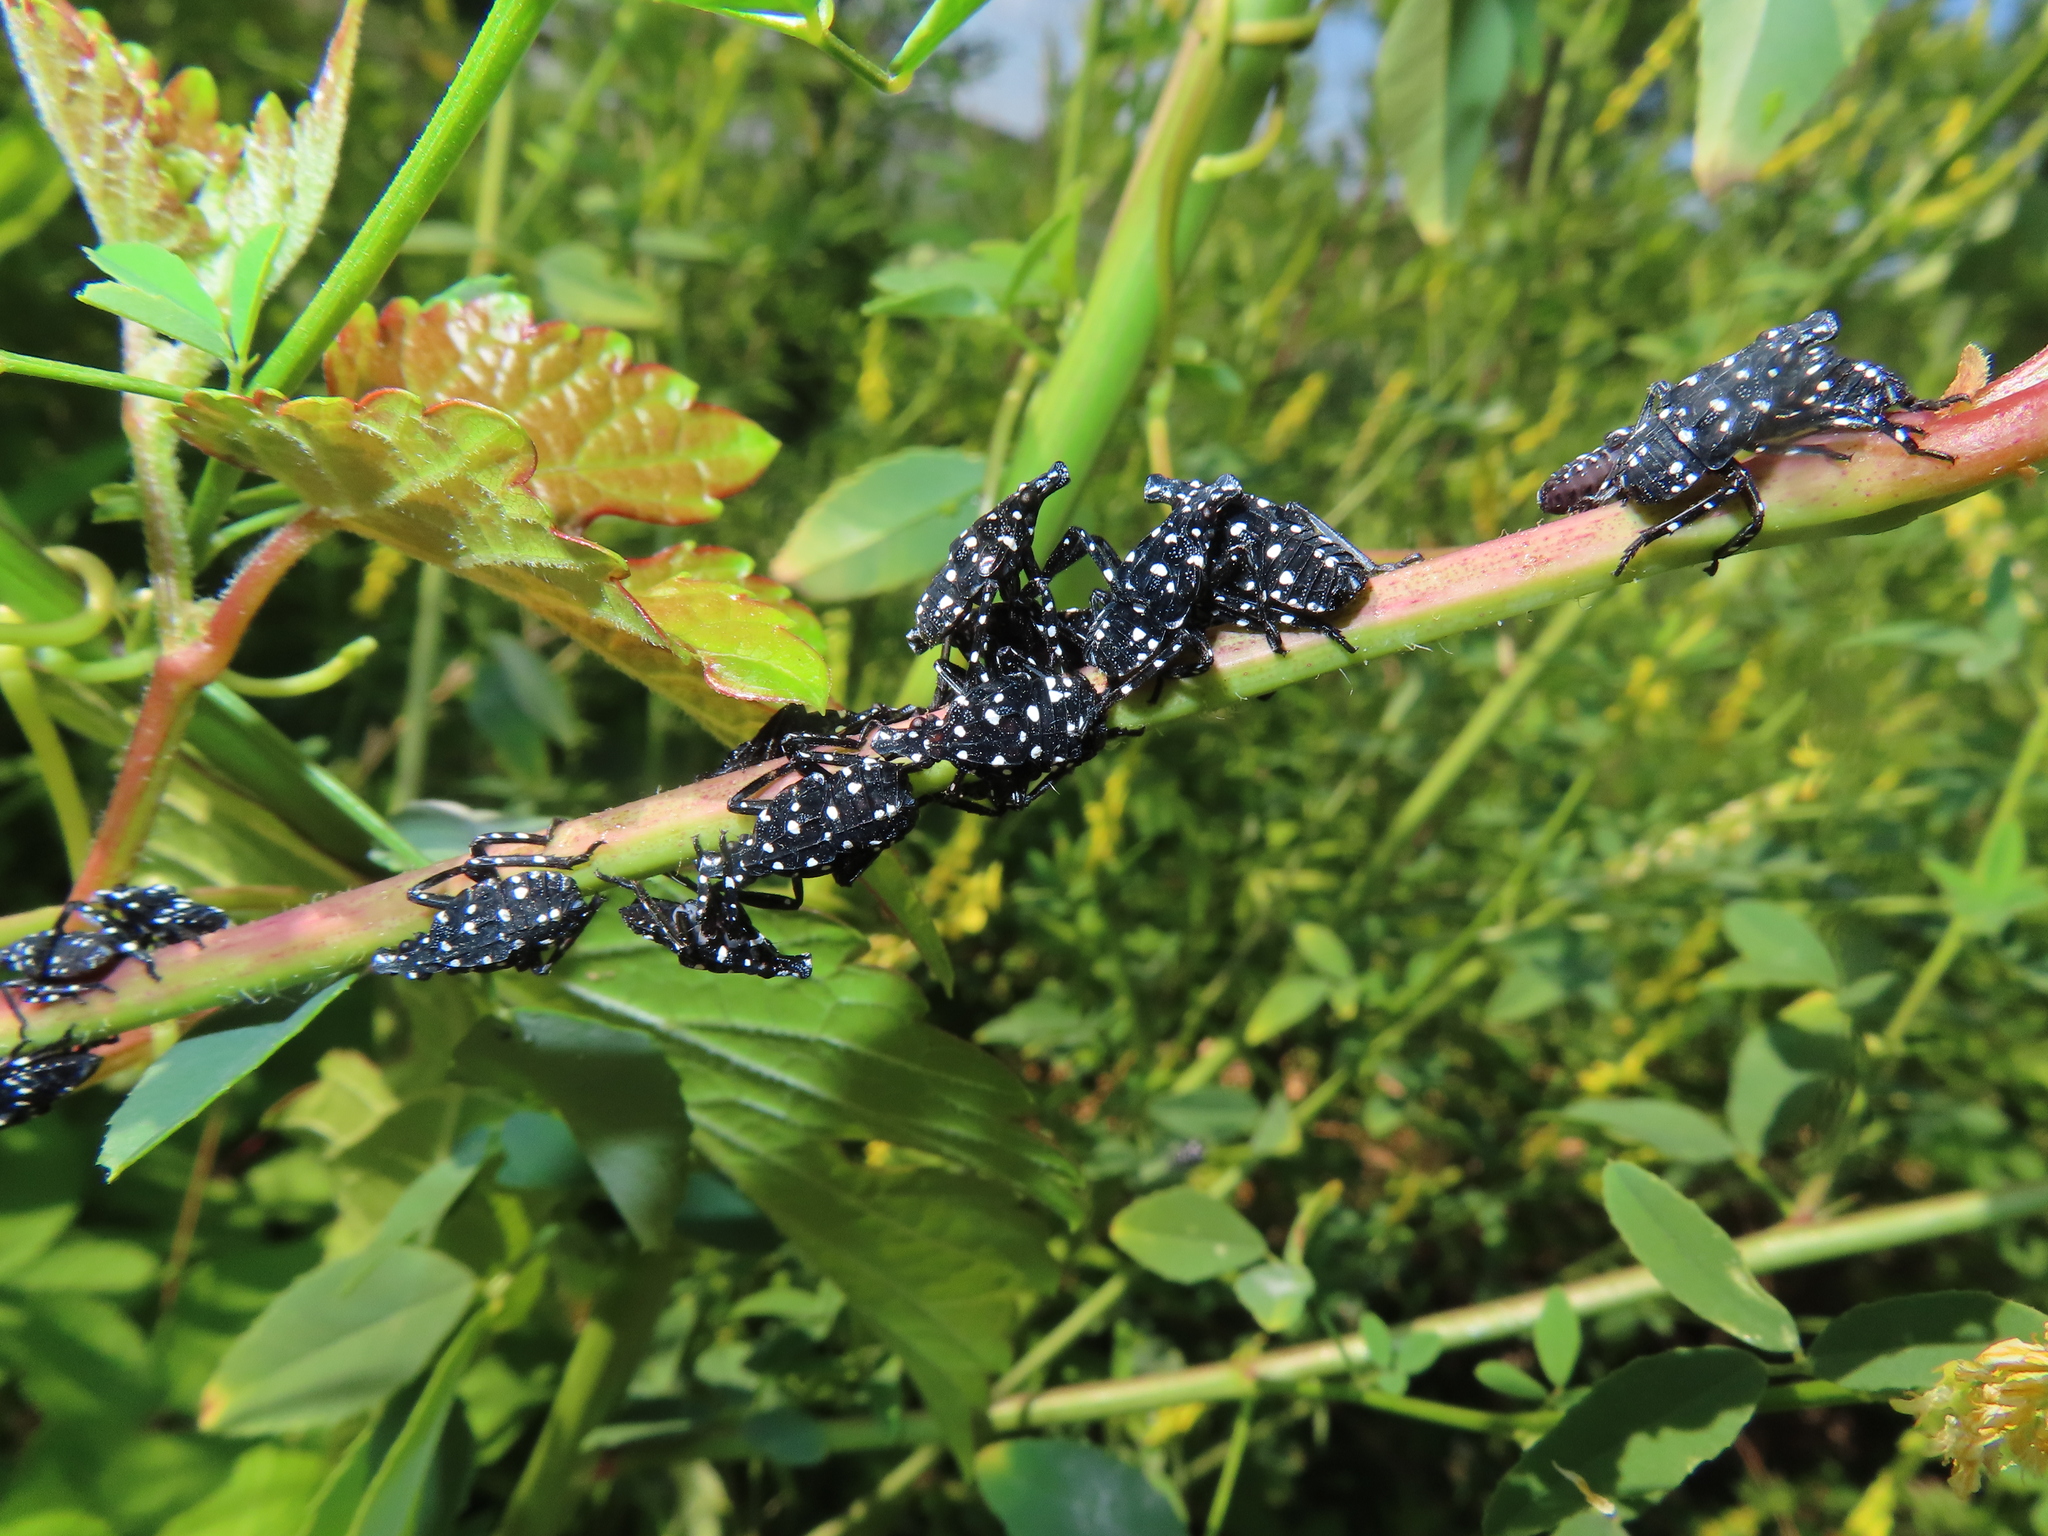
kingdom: Animalia
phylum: Arthropoda
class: Insecta
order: Hemiptera
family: Fulgoridae
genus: Lycorma
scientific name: Lycorma delicatula
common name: Spotted lanternfly
